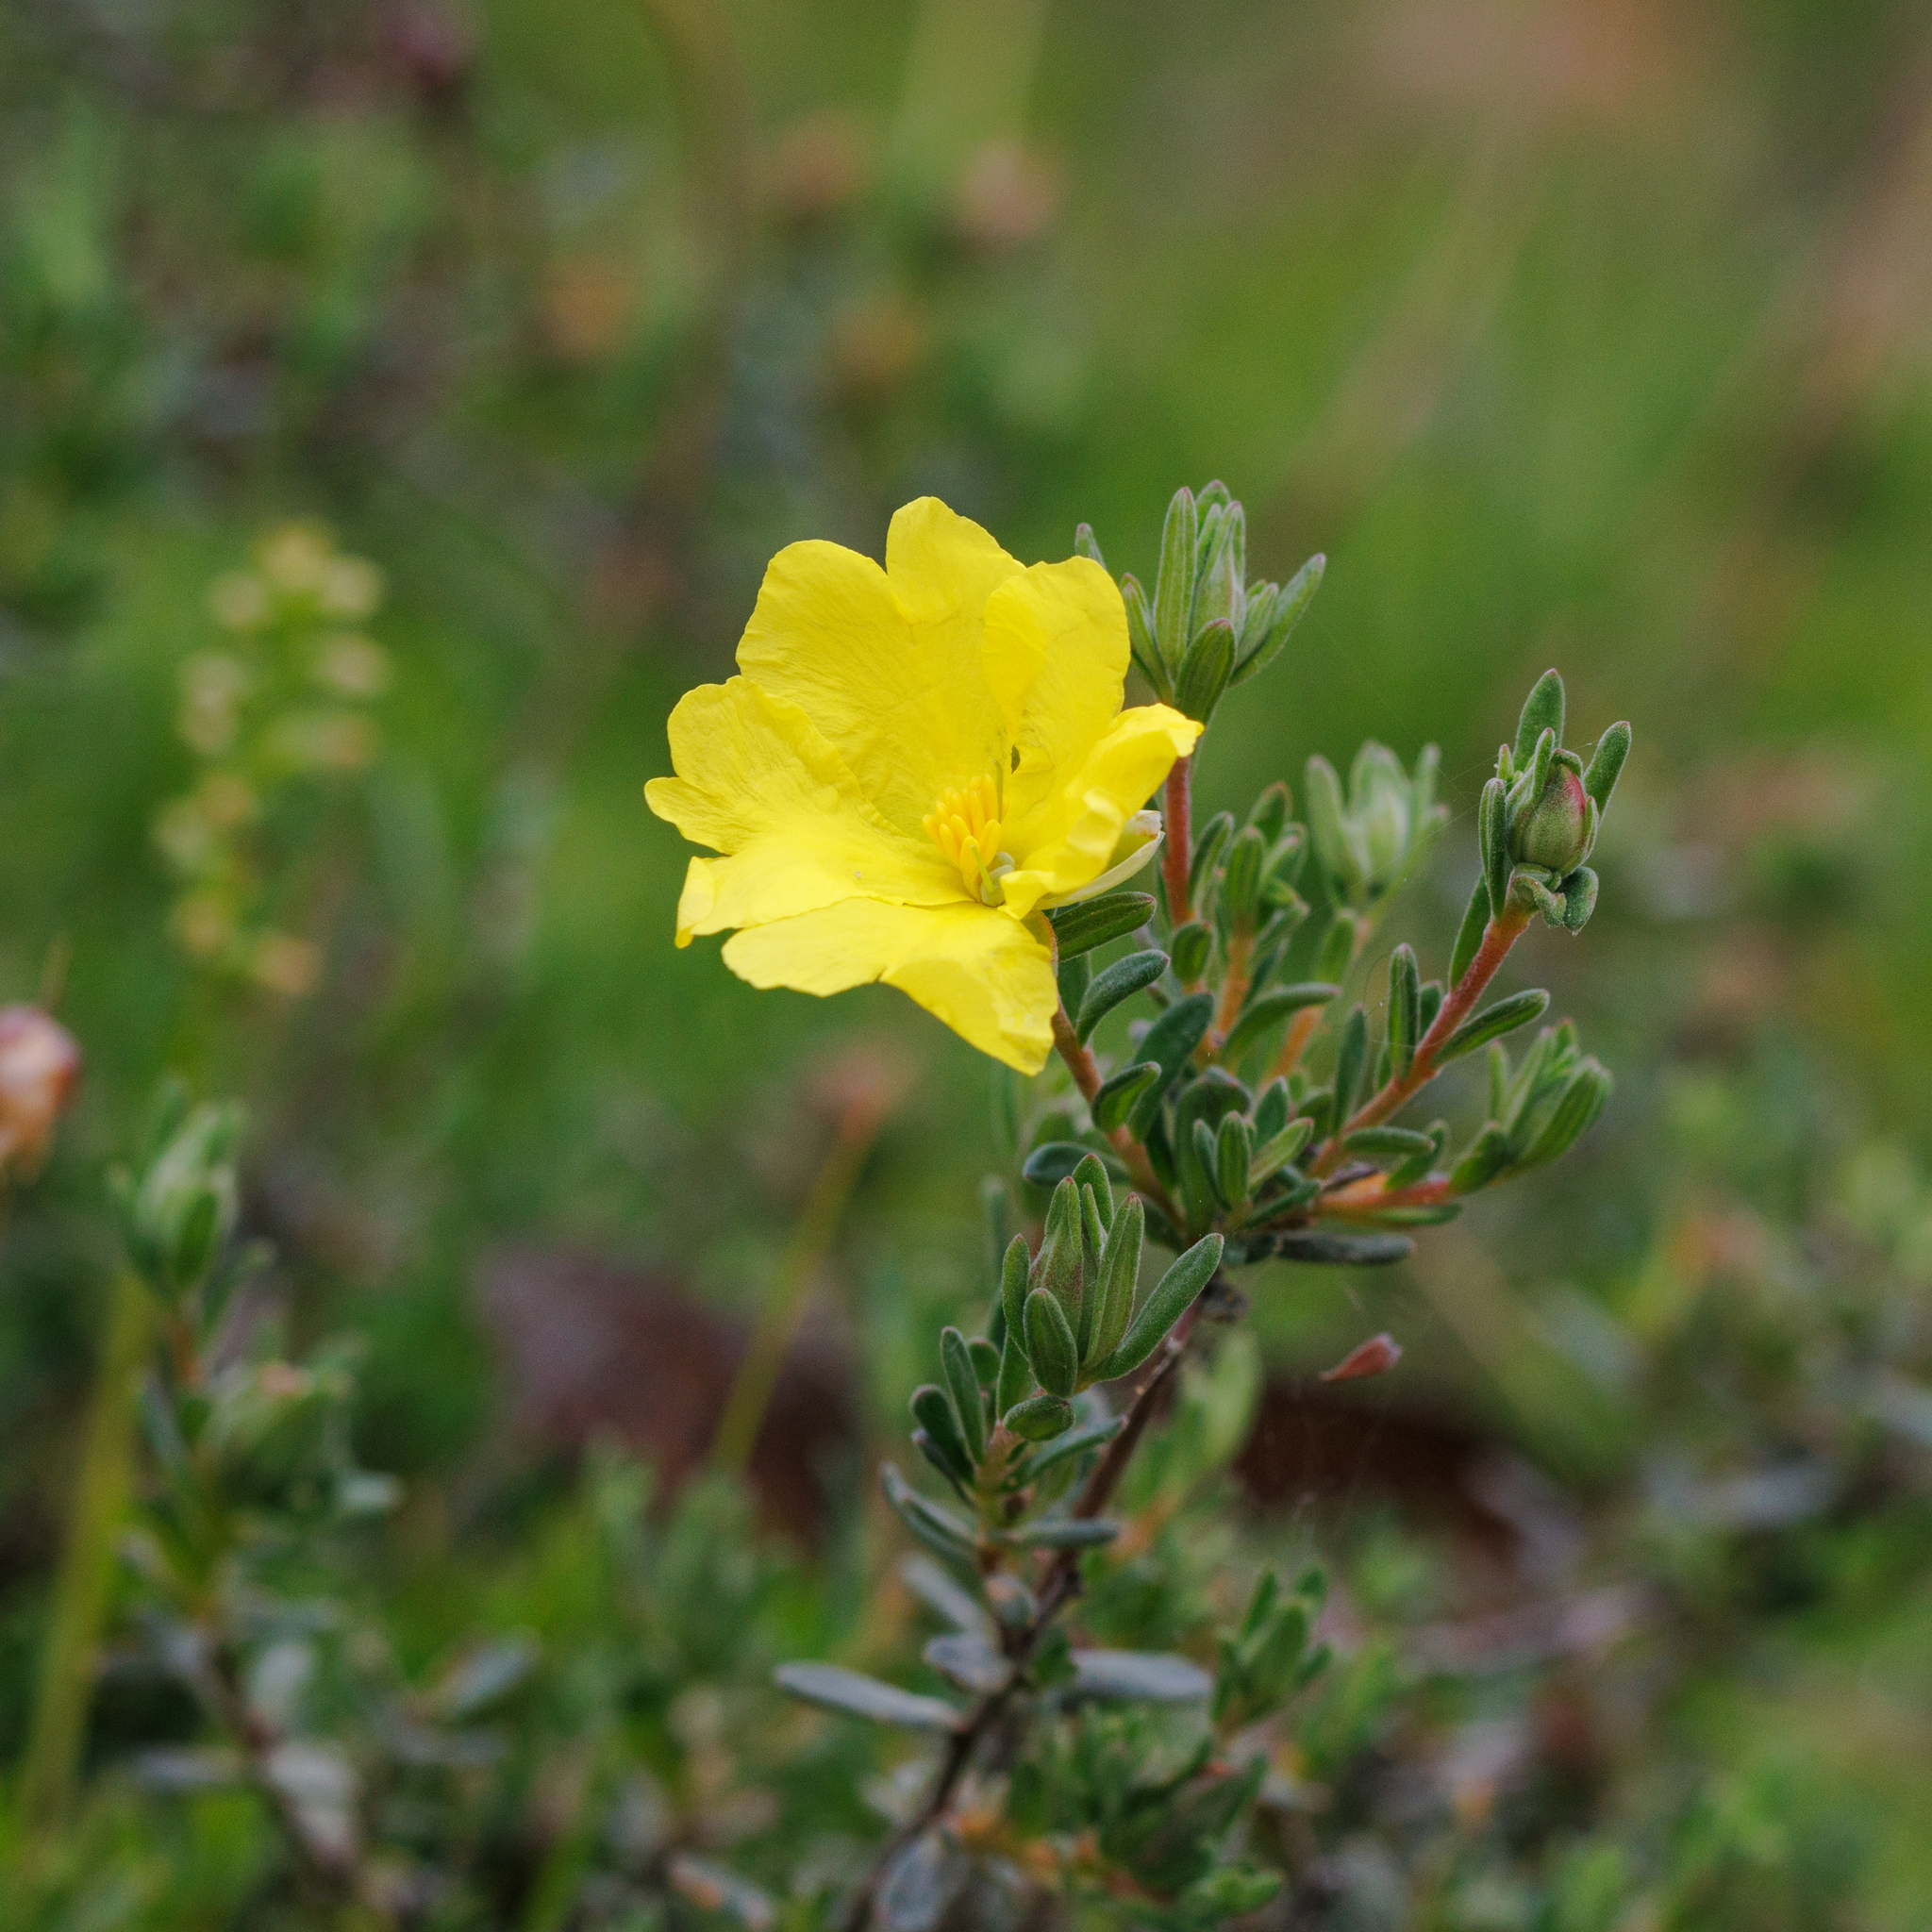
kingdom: Plantae
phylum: Tracheophyta
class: Magnoliopsida
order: Dilleniales
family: Dilleniaceae
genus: Hibbertia
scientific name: Hibbertia crinita
